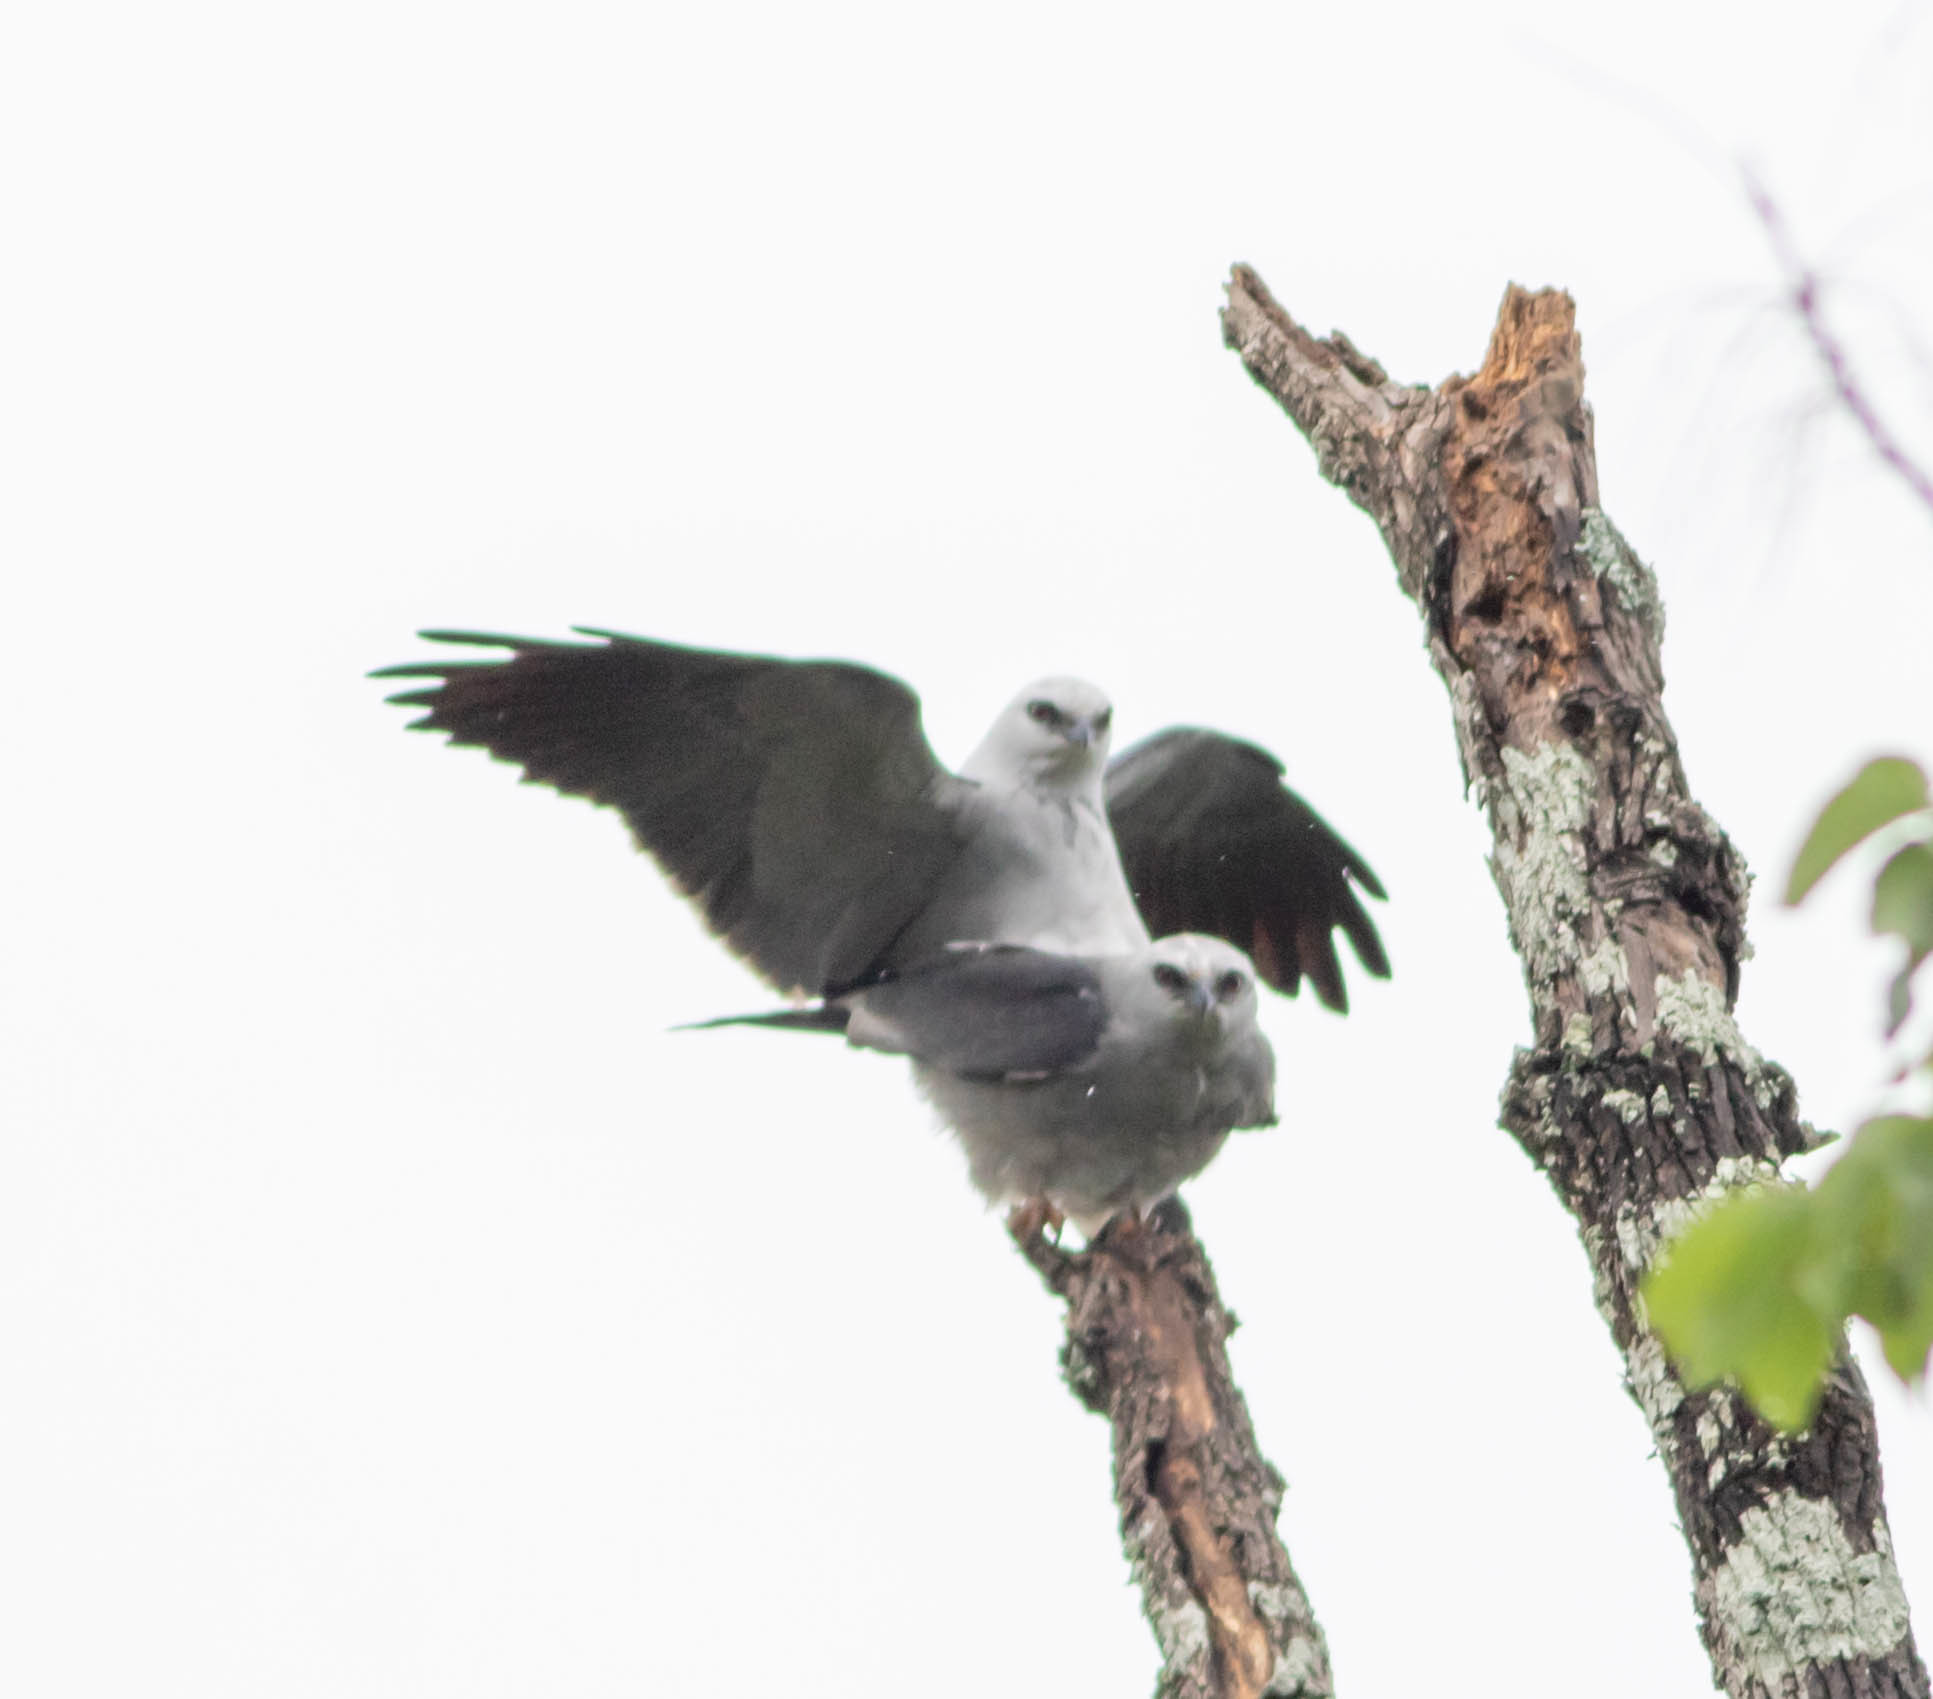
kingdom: Animalia
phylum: Chordata
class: Aves
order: Accipitriformes
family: Accipitridae
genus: Ictinia
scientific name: Ictinia mississippiensis
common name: Mississippi kite
